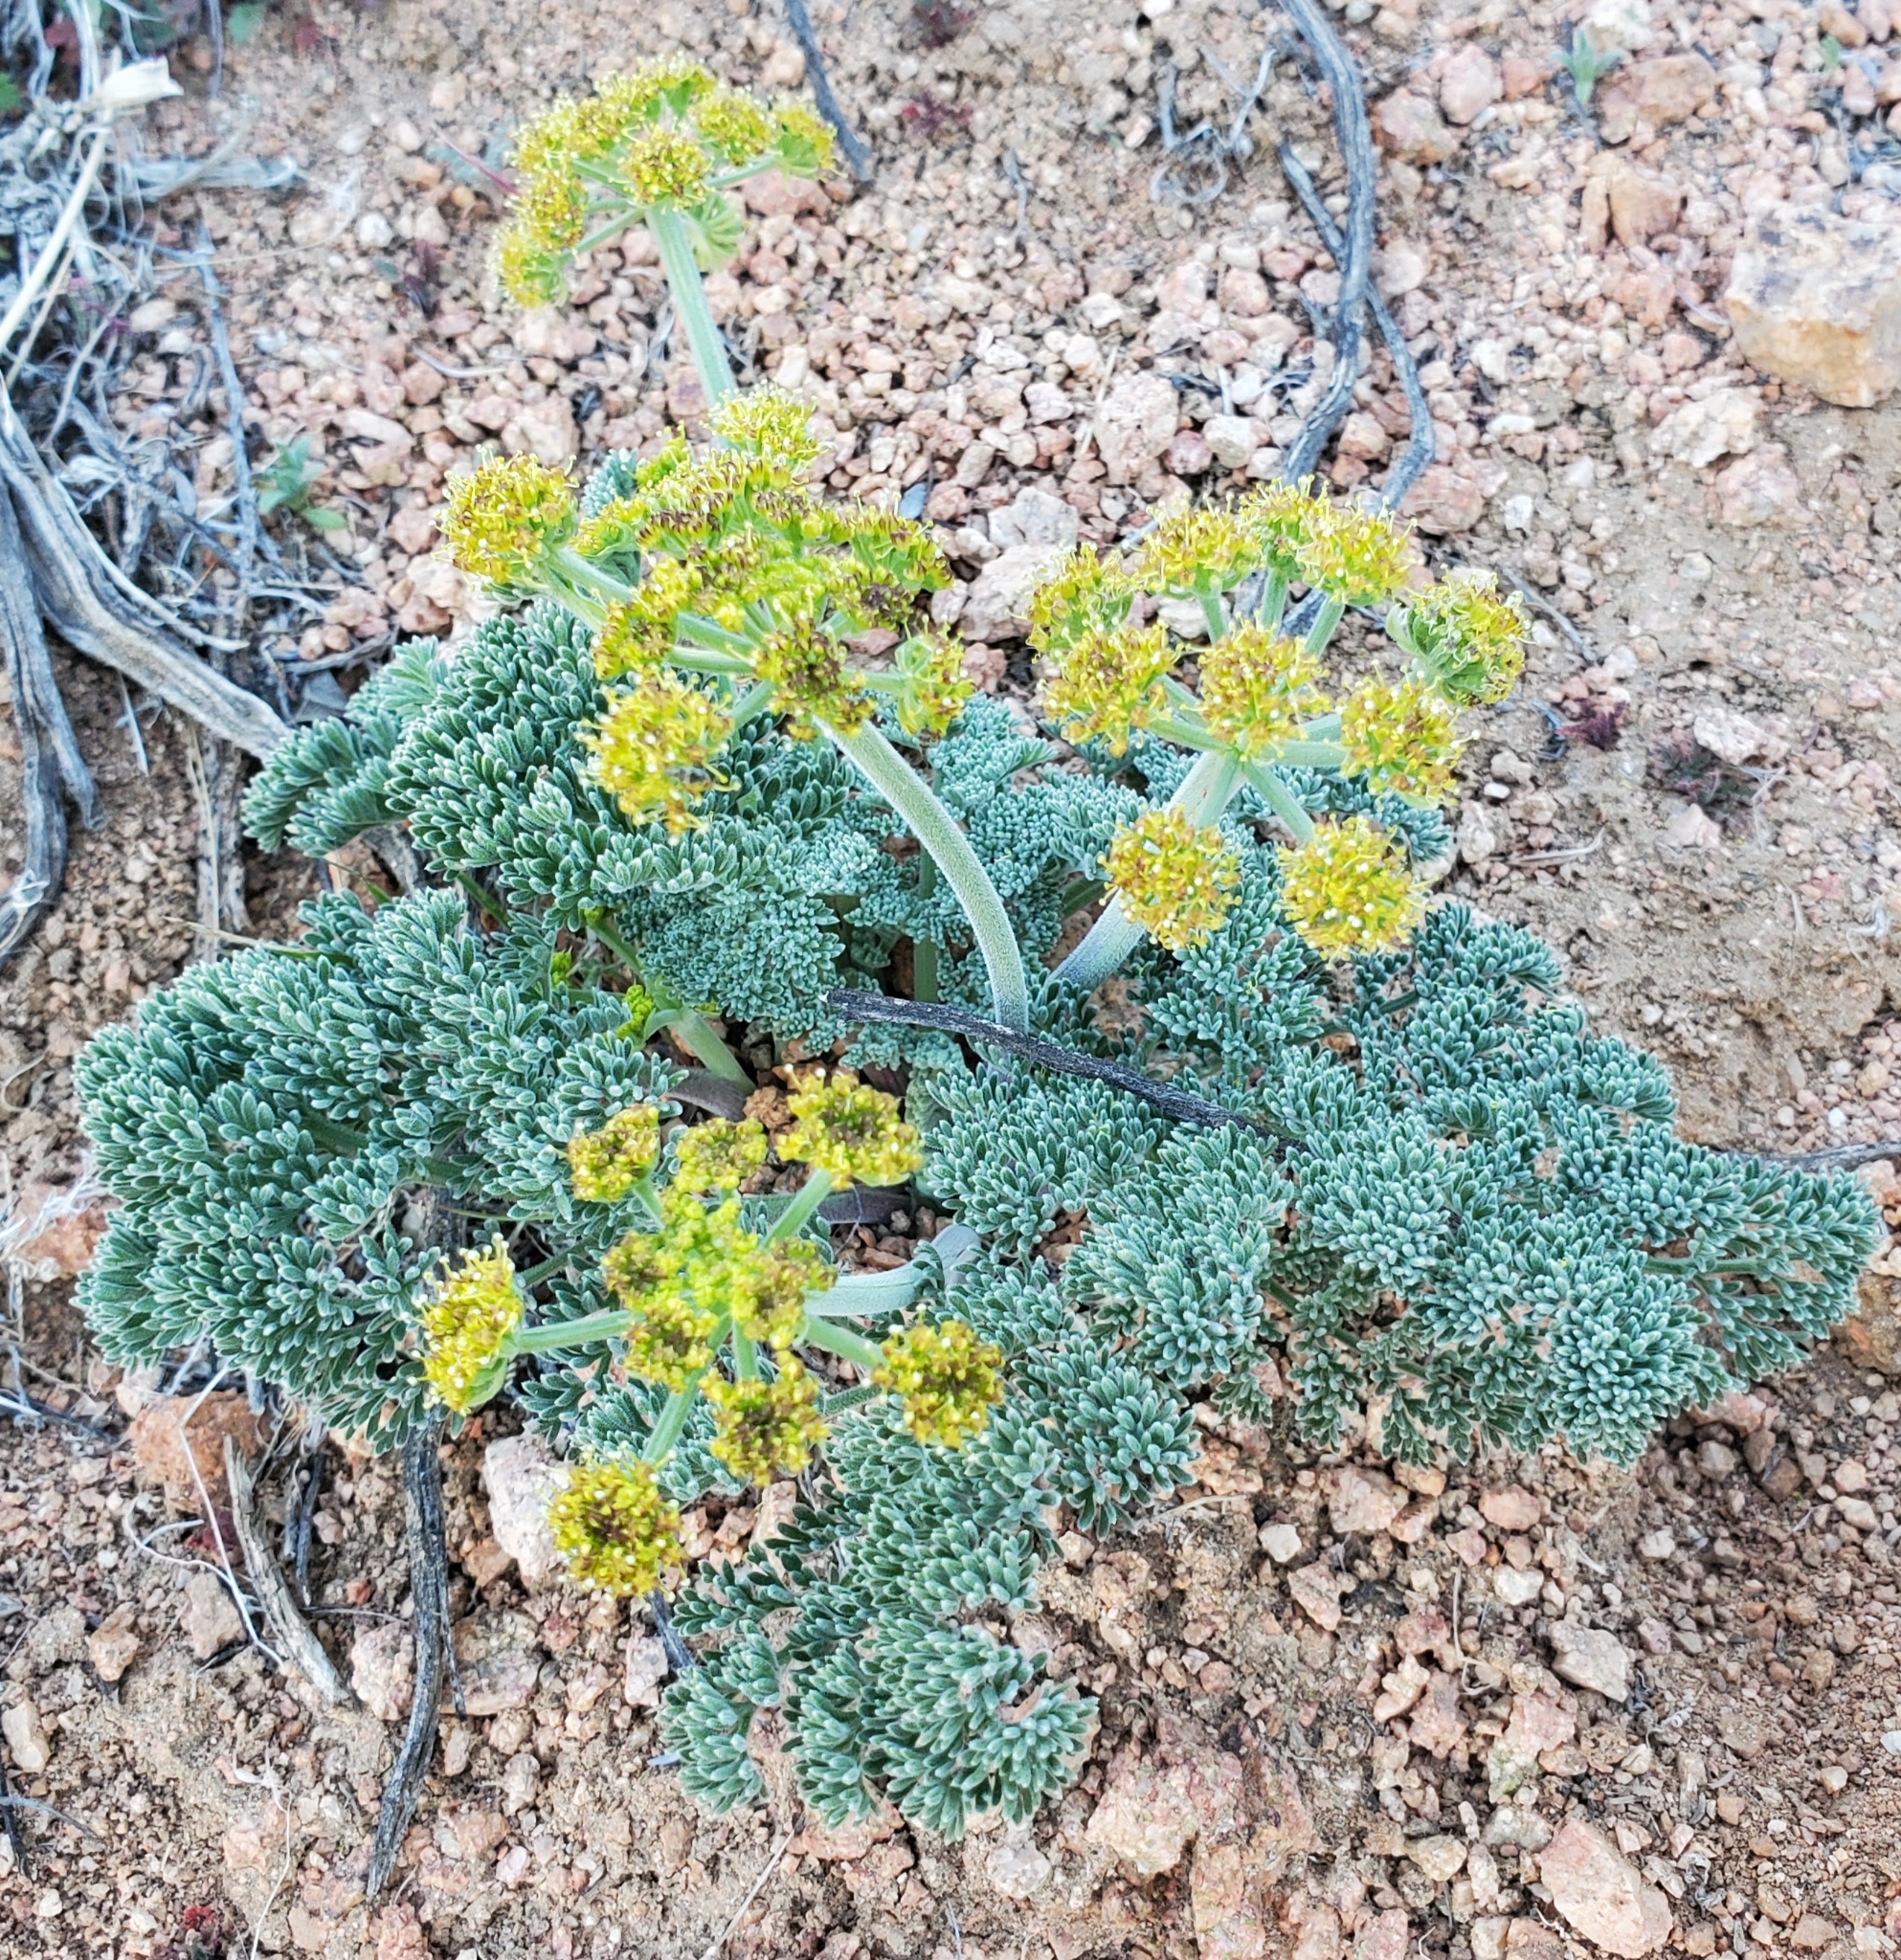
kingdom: Plantae
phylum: Tracheophyta
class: Magnoliopsida
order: Apiales
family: Apiaceae
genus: Lomatium
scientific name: Lomatium mohavense
